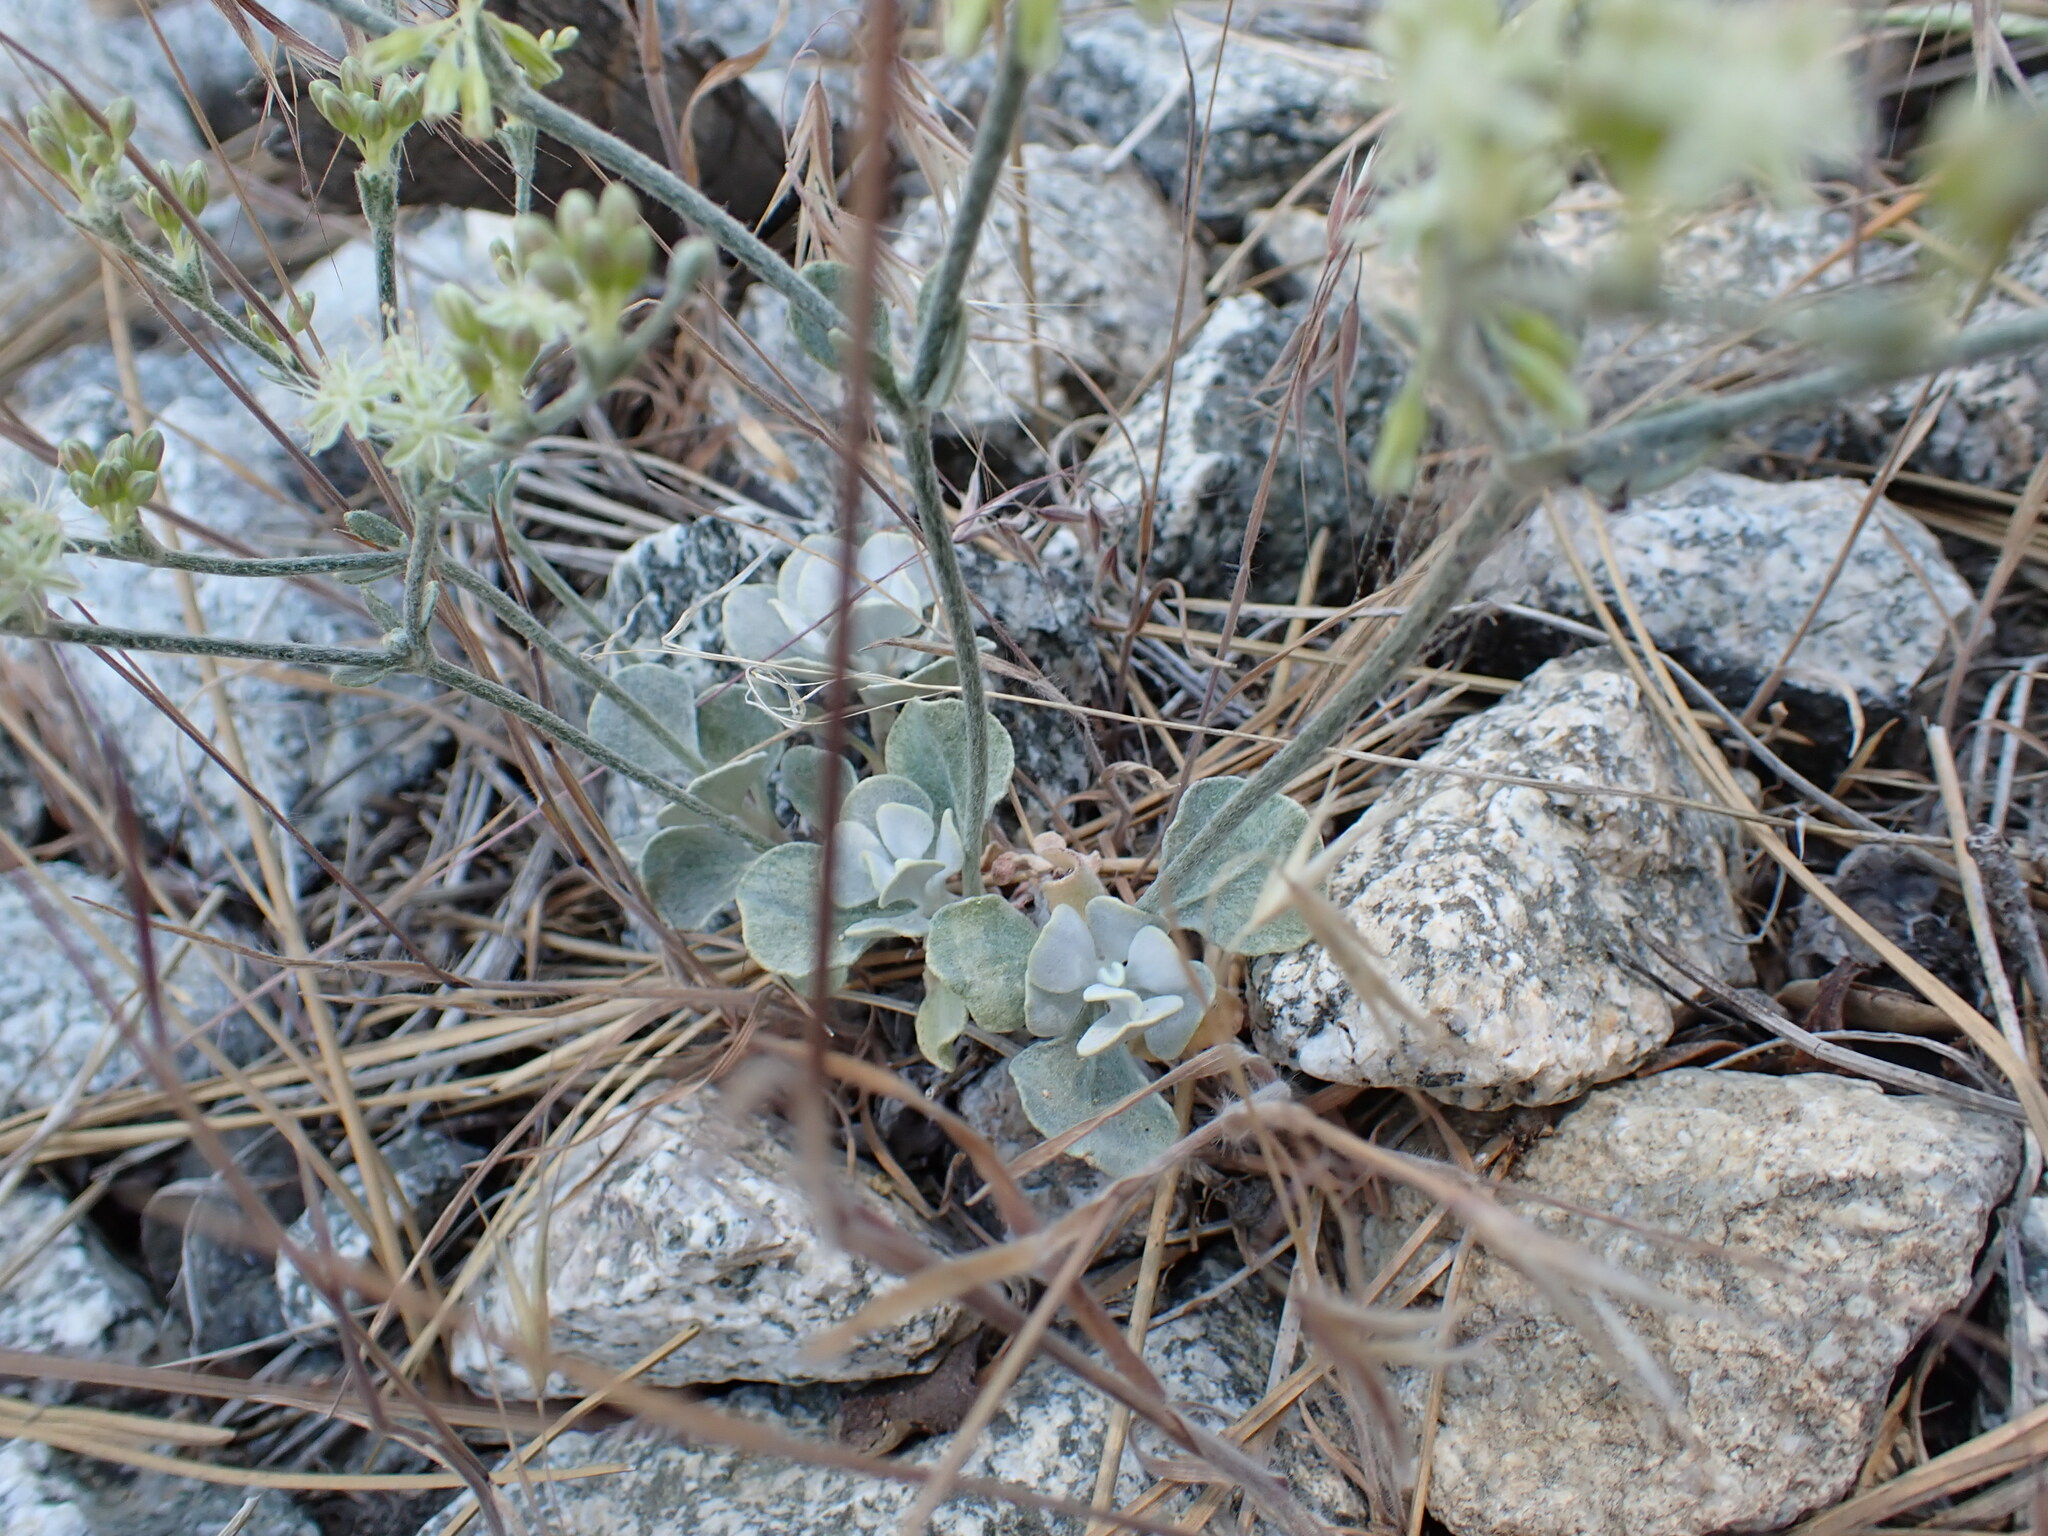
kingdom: Plantae
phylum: Tracheophyta
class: Magnoliopsida
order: Caryophyllales
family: Polygonaceae
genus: Eriogonum
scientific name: Eriogonum saxatile
